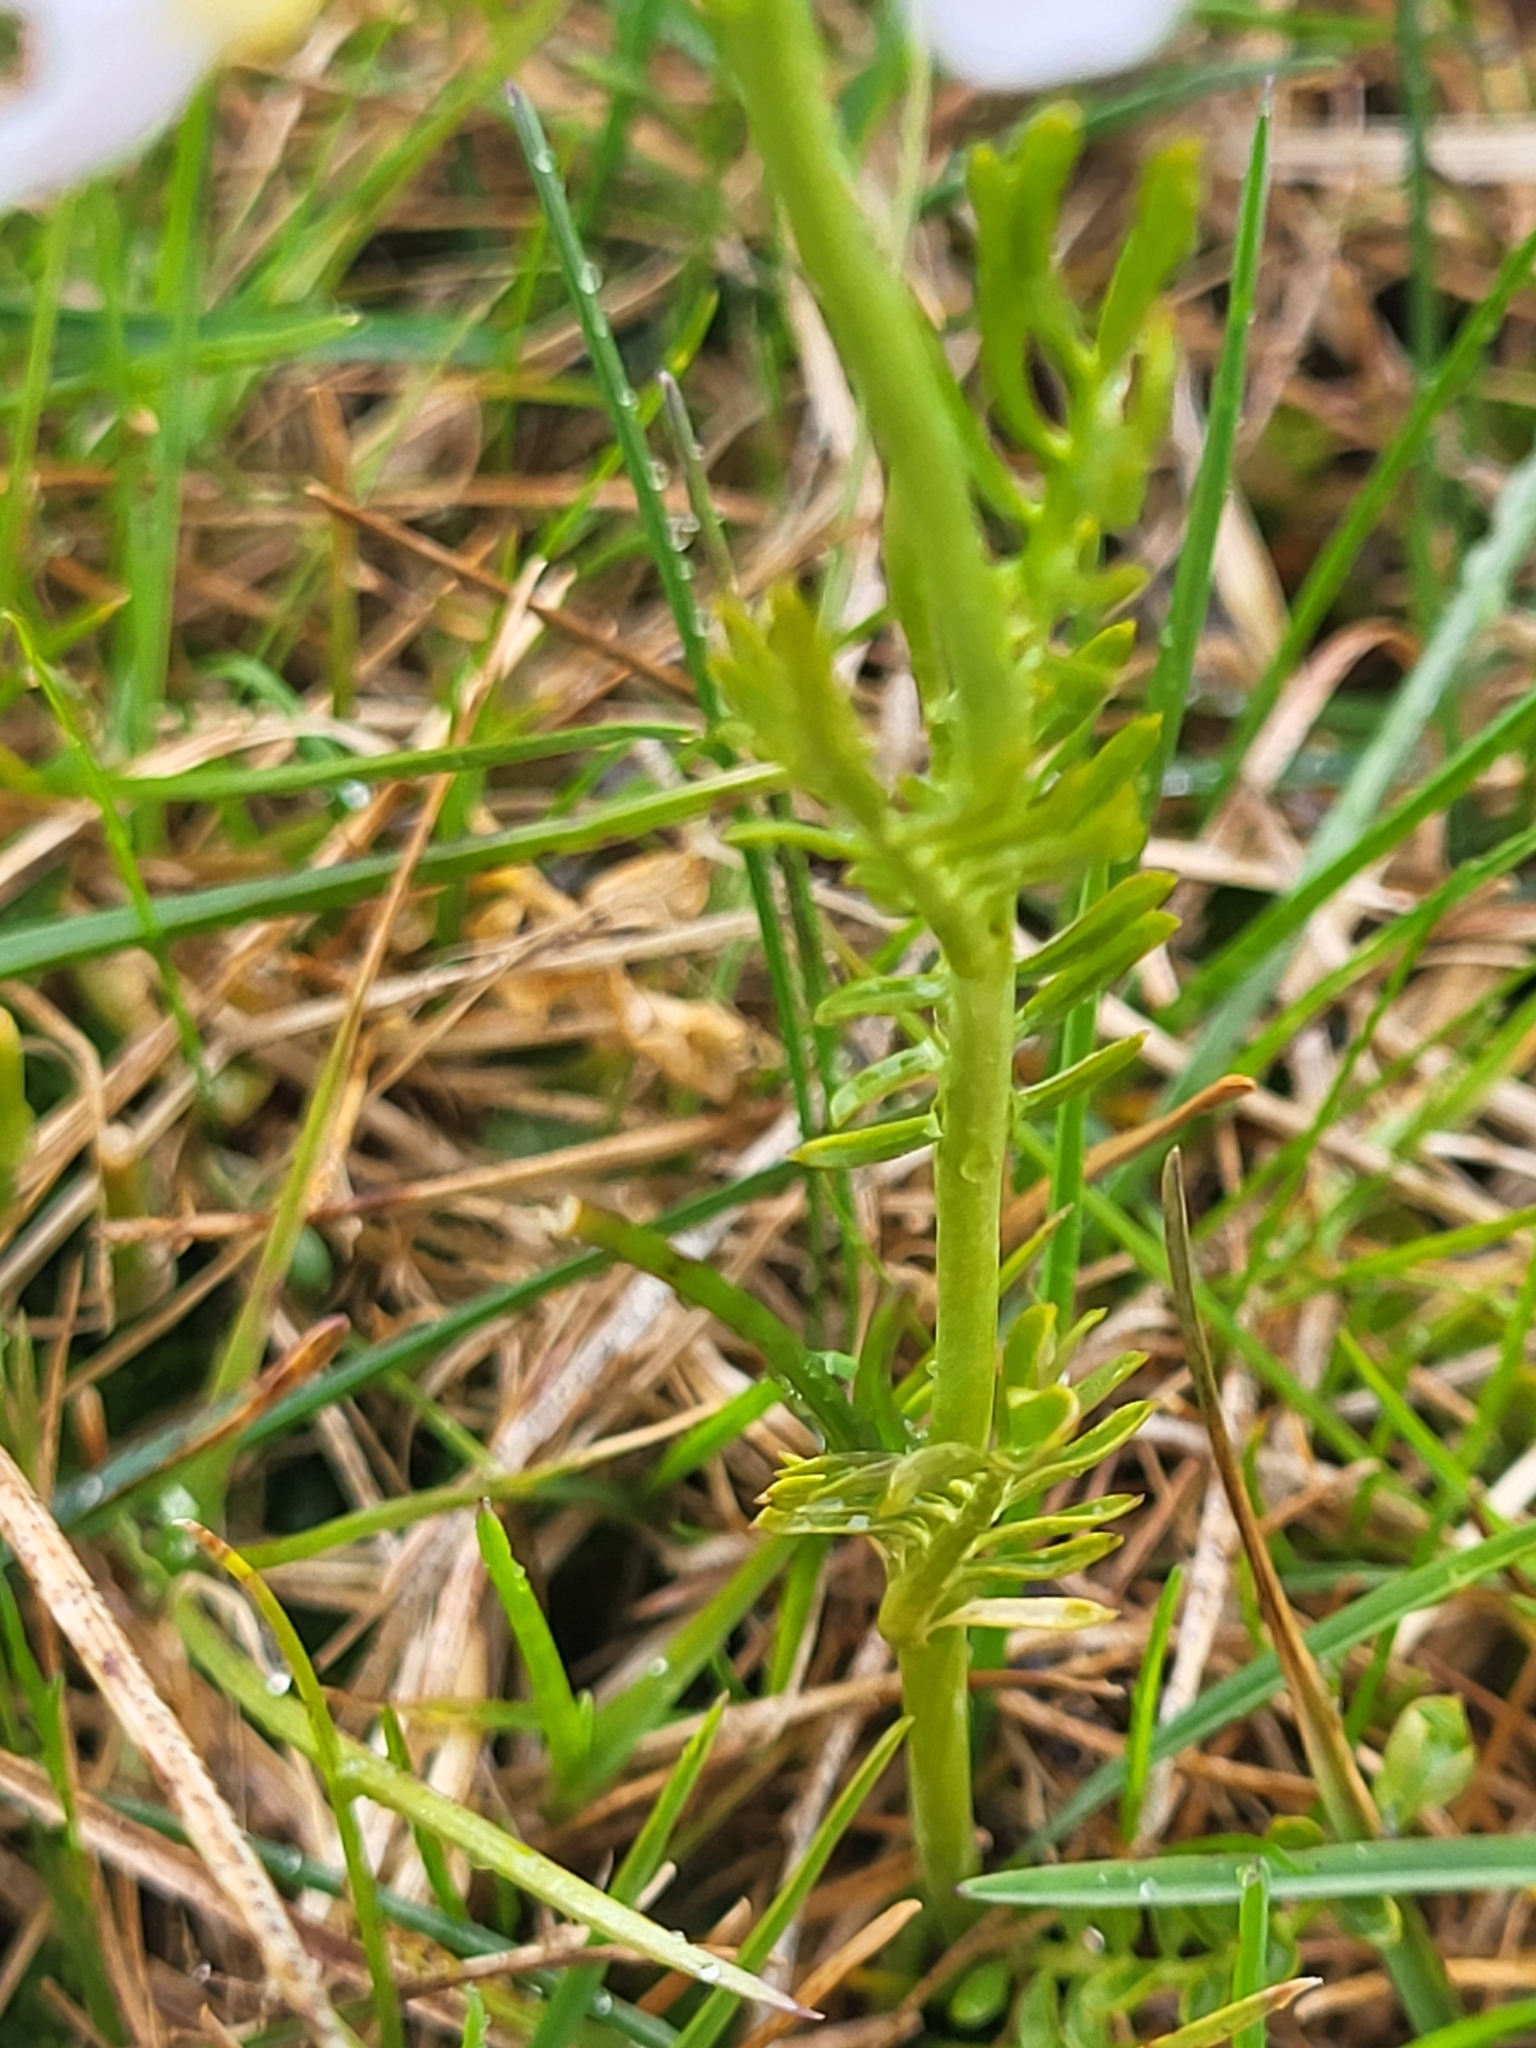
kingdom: Plantae
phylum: Tracheophyta
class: Magnoliopsida
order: Brassicales
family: Brassicaceae
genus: Cardamine
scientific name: Cardamine pratensis
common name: Cuckoo flower
